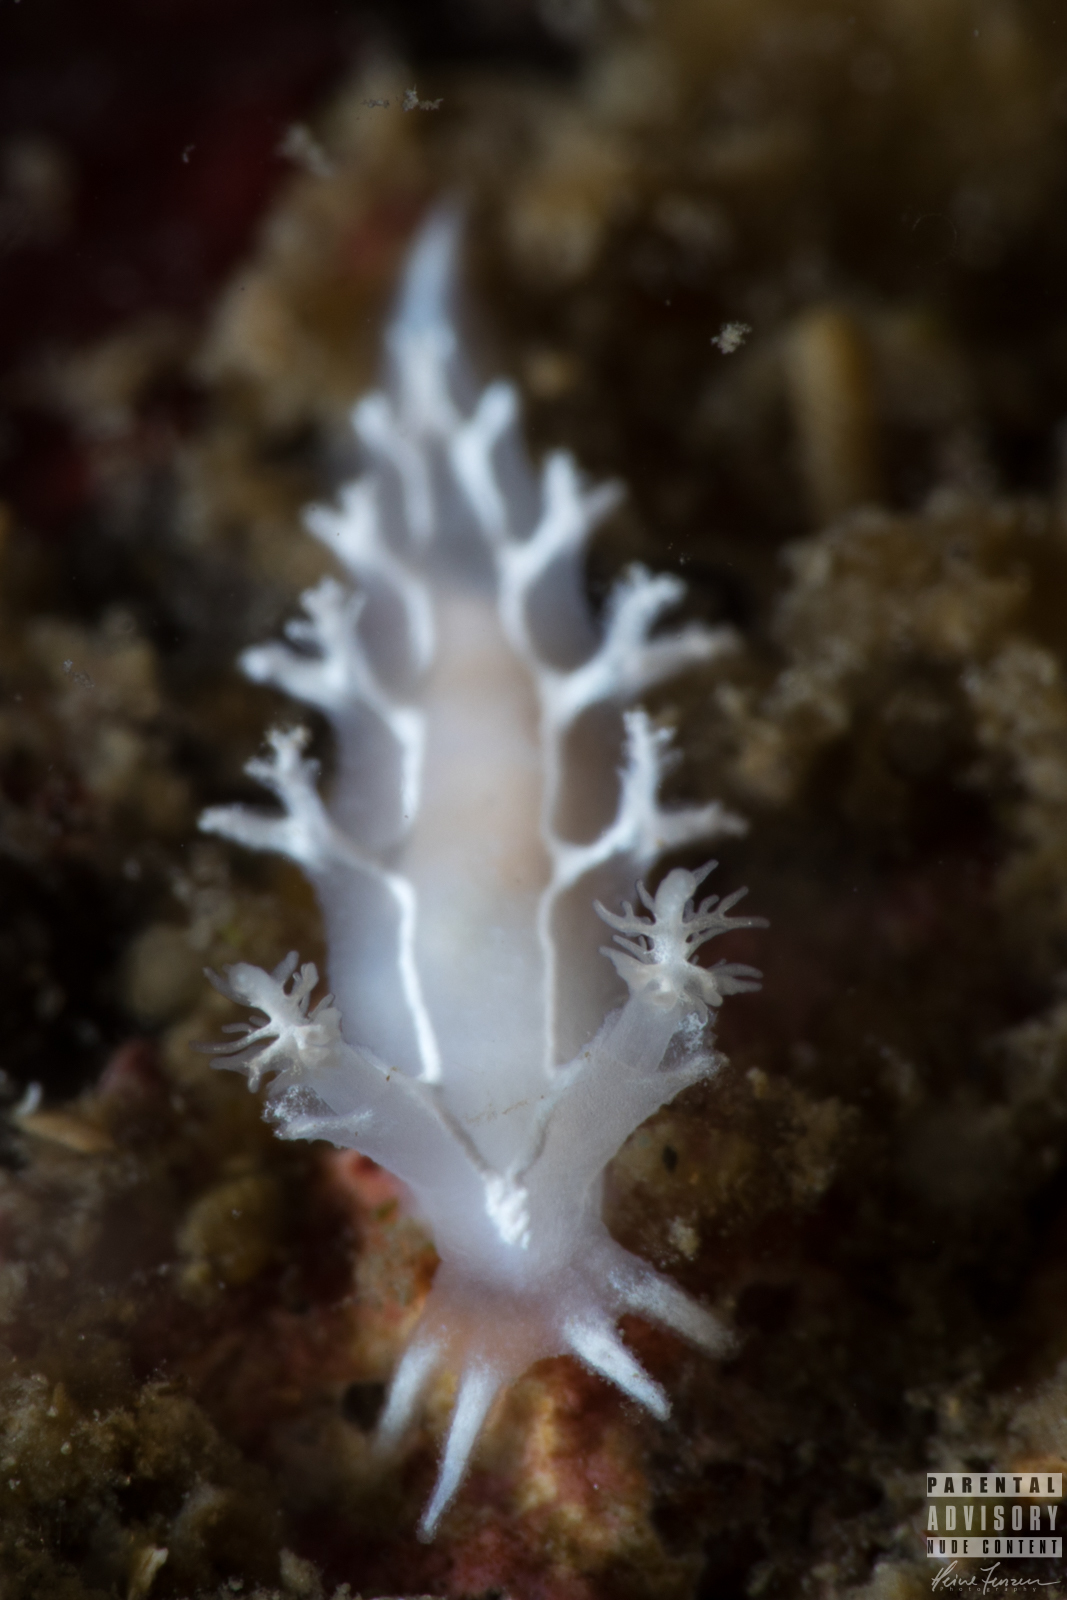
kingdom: Animalia
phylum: Mollusca
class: Gastropoda
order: Nudibranchia
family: Tritoniidae
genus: Duvaucelia
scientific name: Duvaucelia lineata
